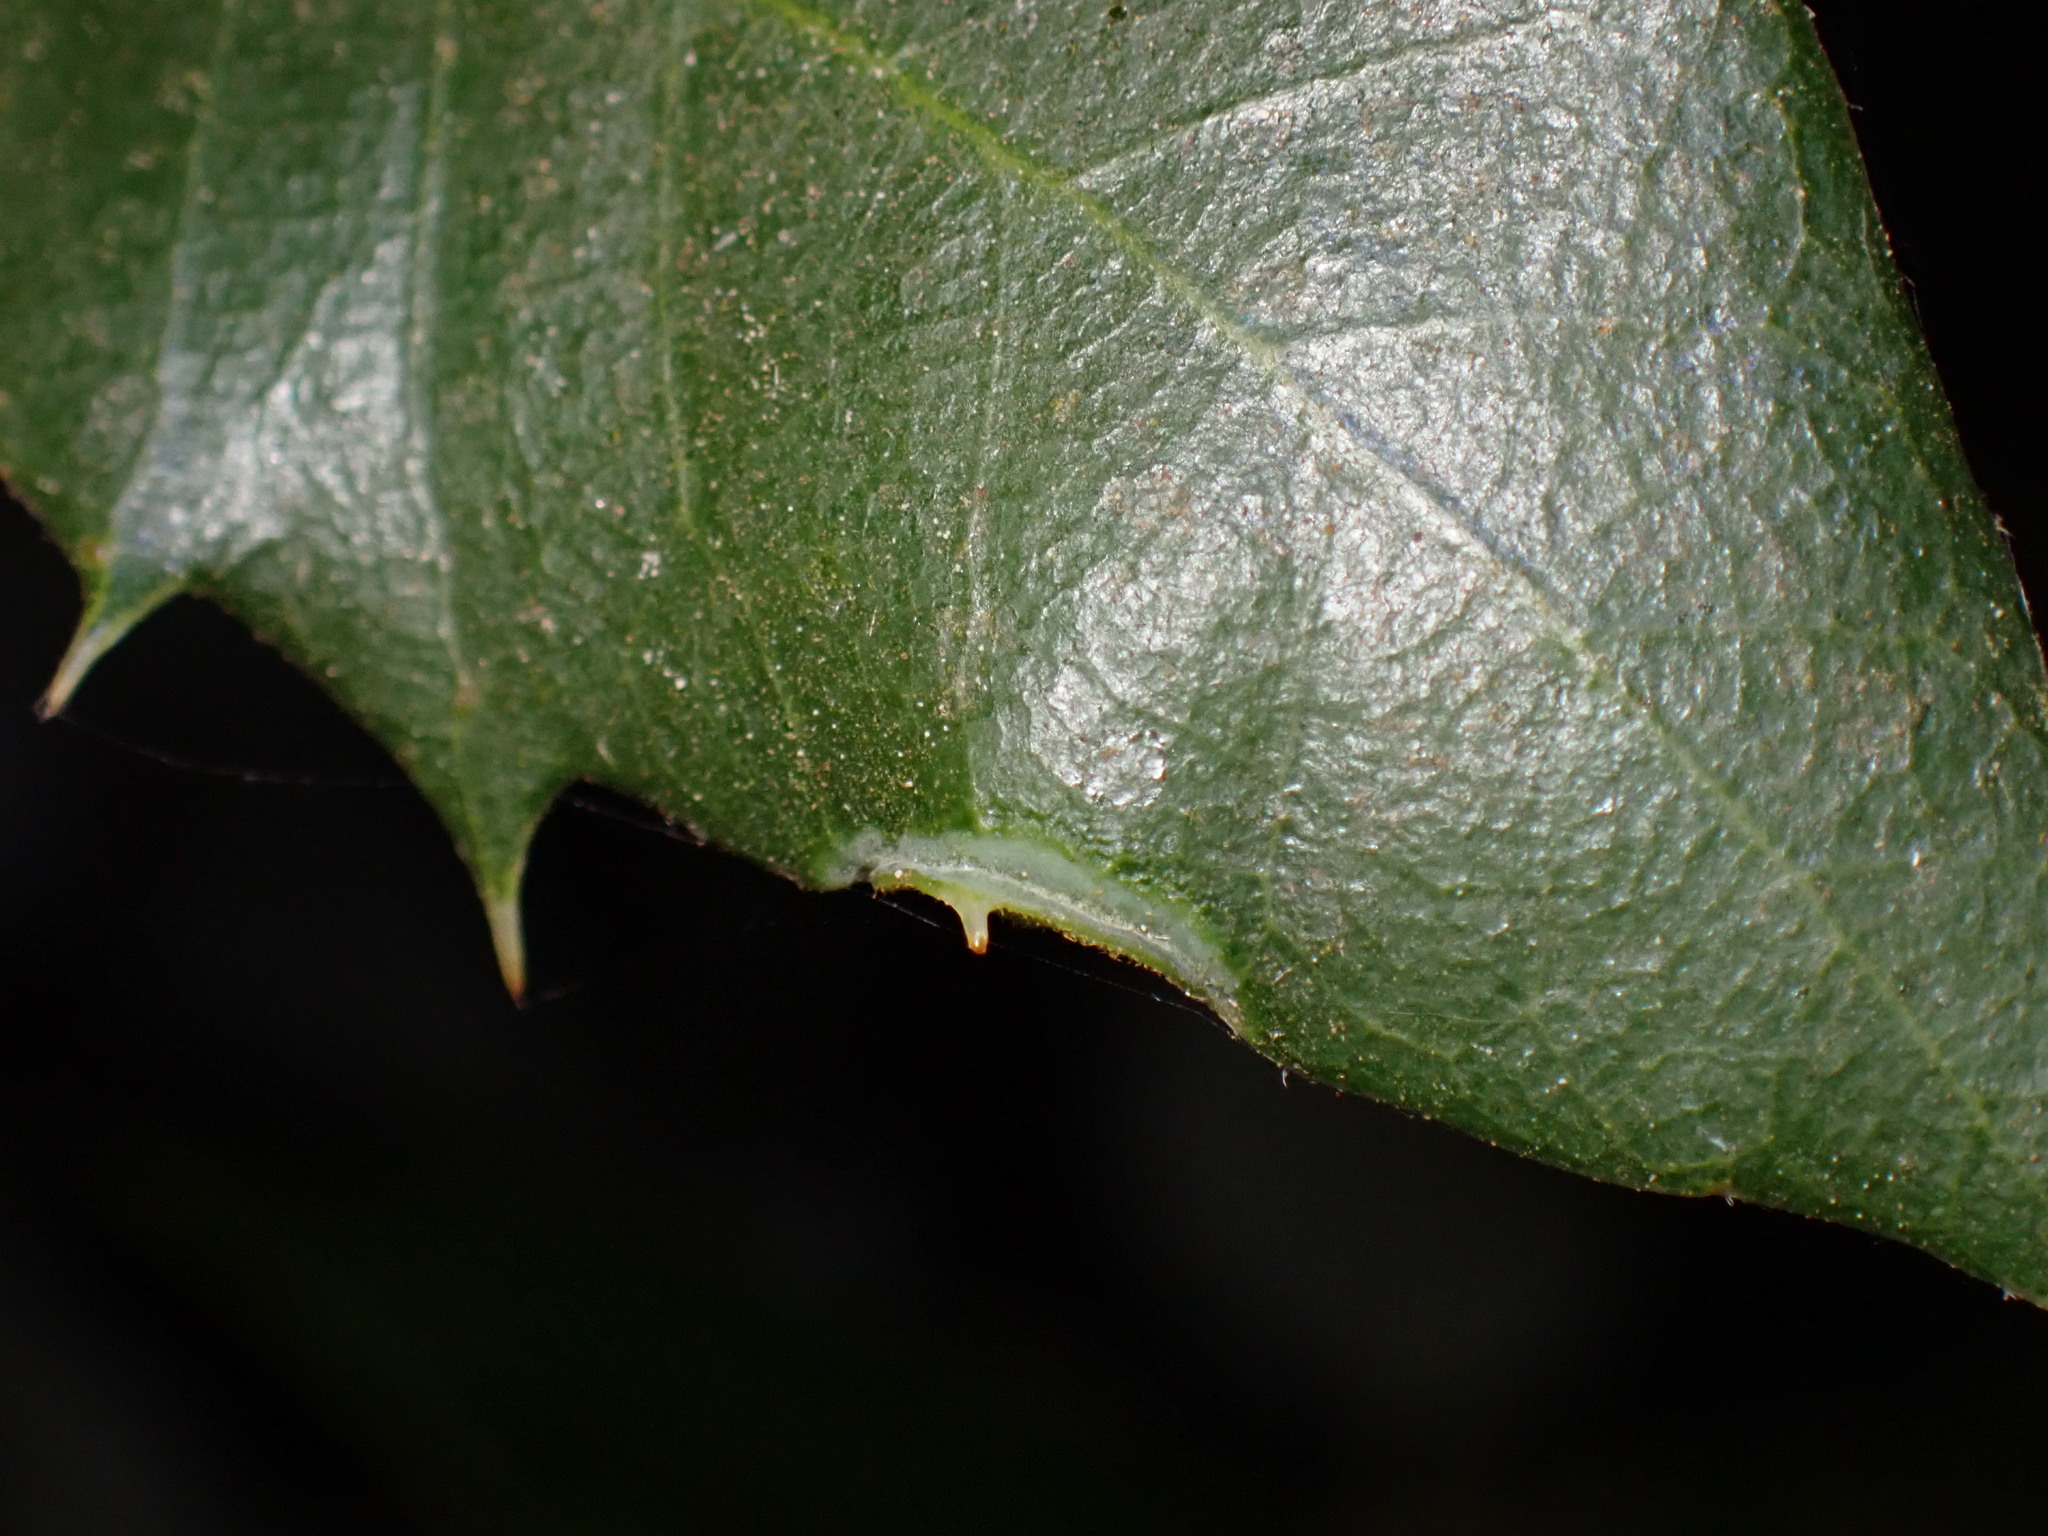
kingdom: Animalia
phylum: Arthropoda
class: Insecta
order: Diptera
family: Cecidomyiidae
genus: Dasineura
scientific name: Dasineura silvestrii
